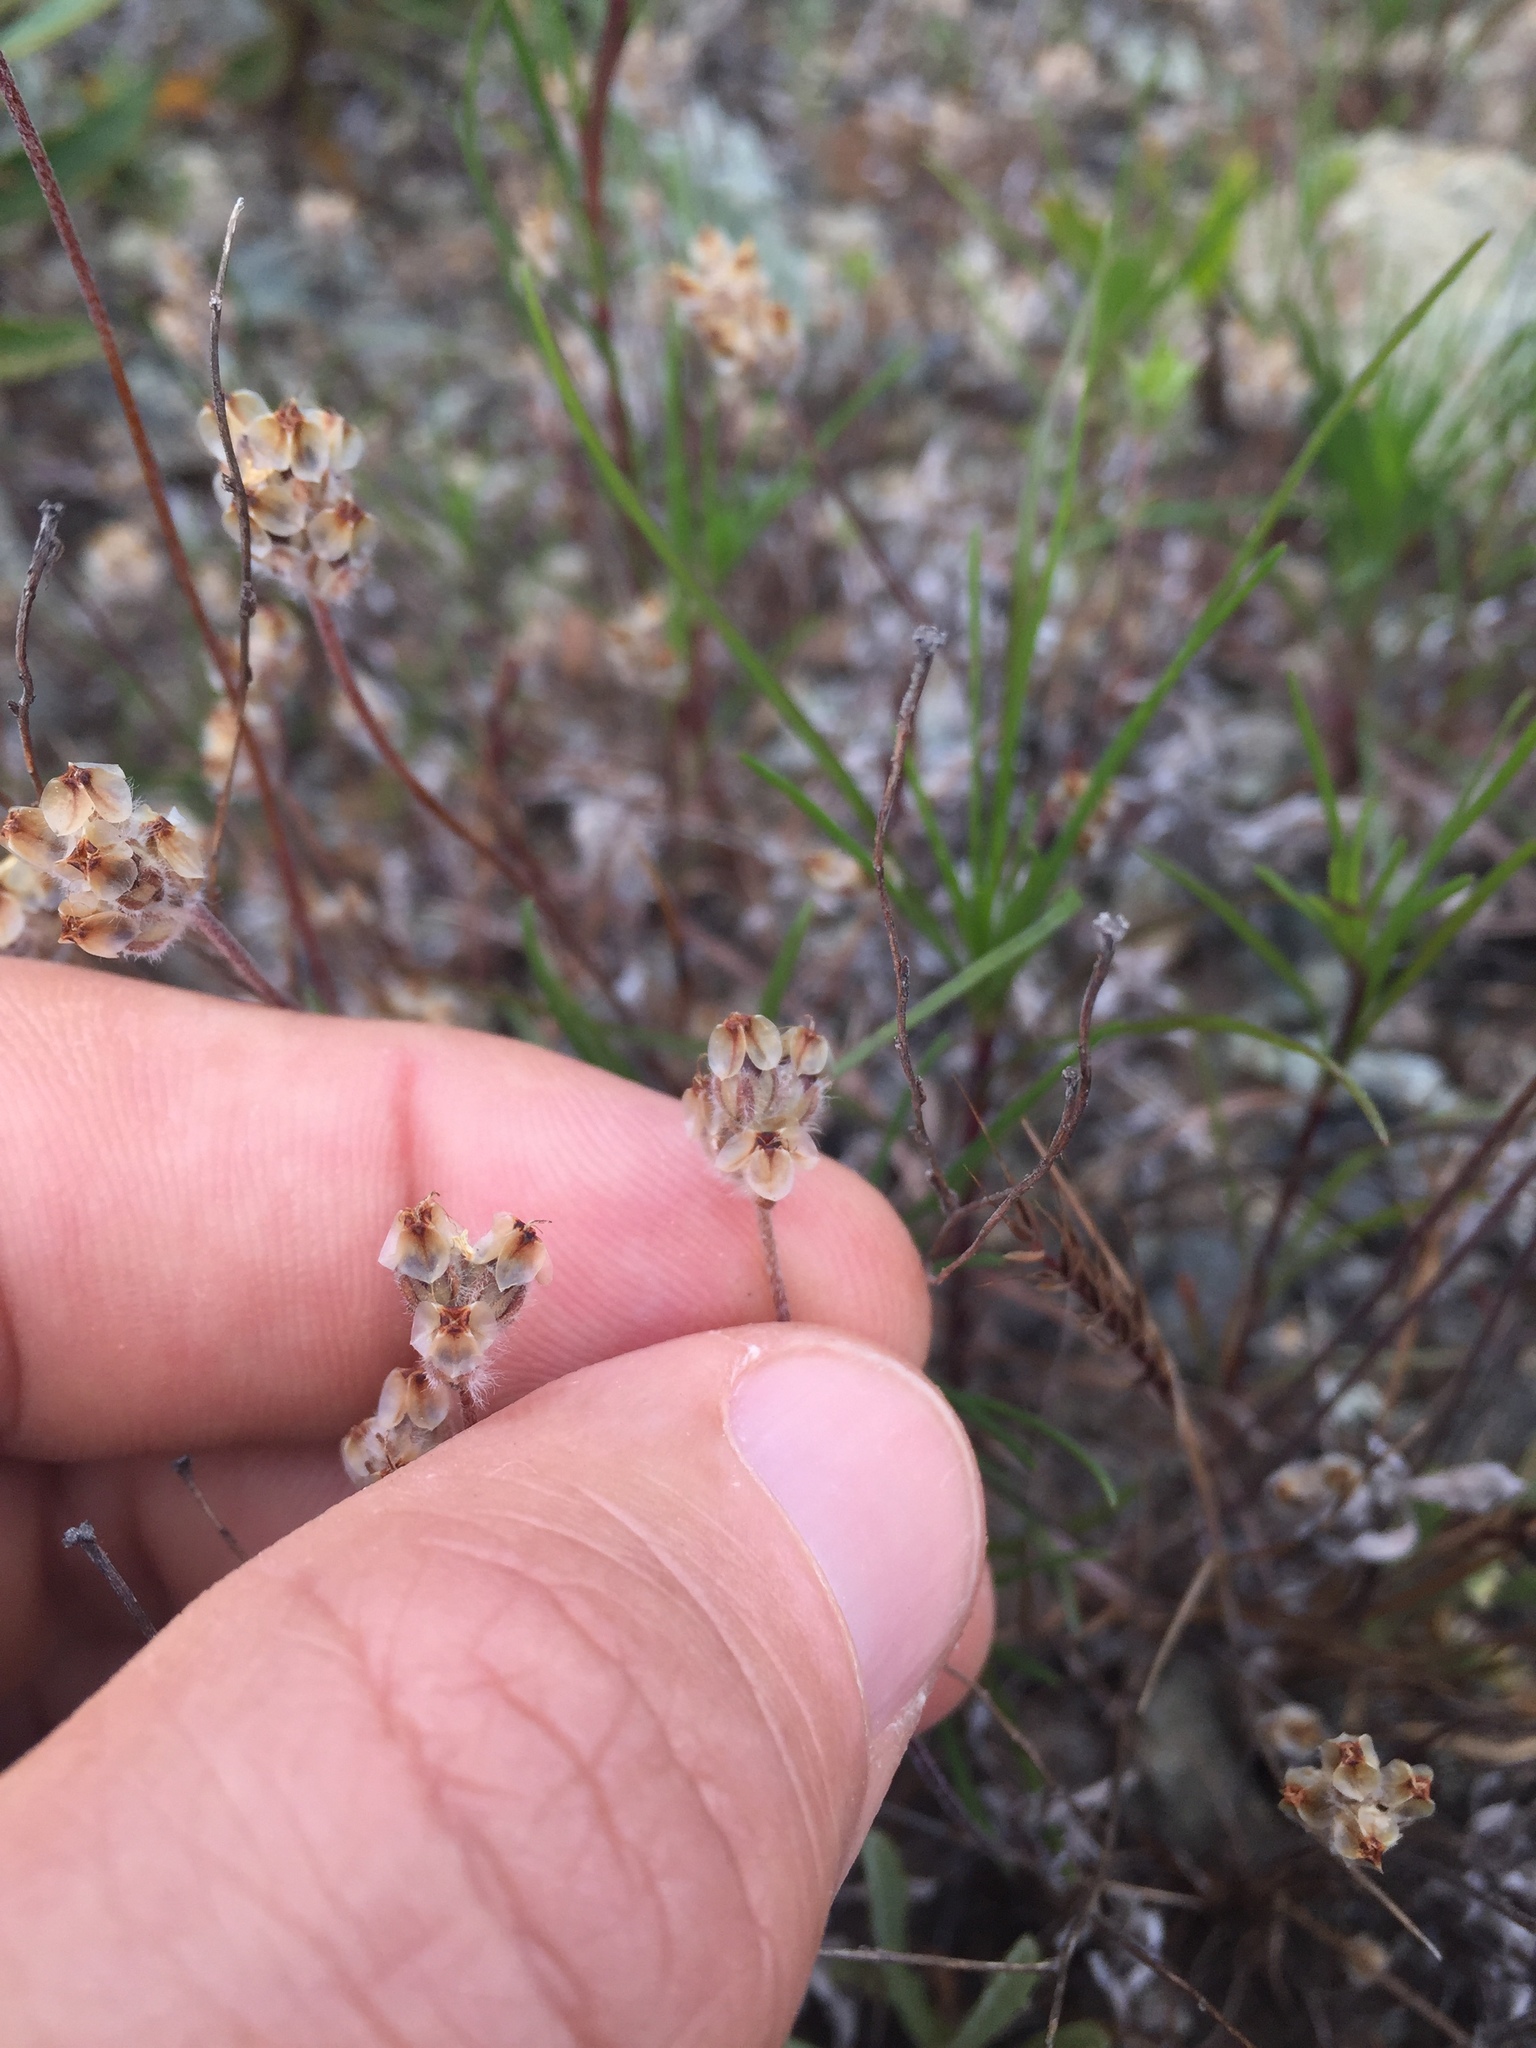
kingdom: Plantae
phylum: Tracheophyta
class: Magnoliopsida
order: Lamiales
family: Plantaginaceae
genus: Plantago
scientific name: Plantago erecta
